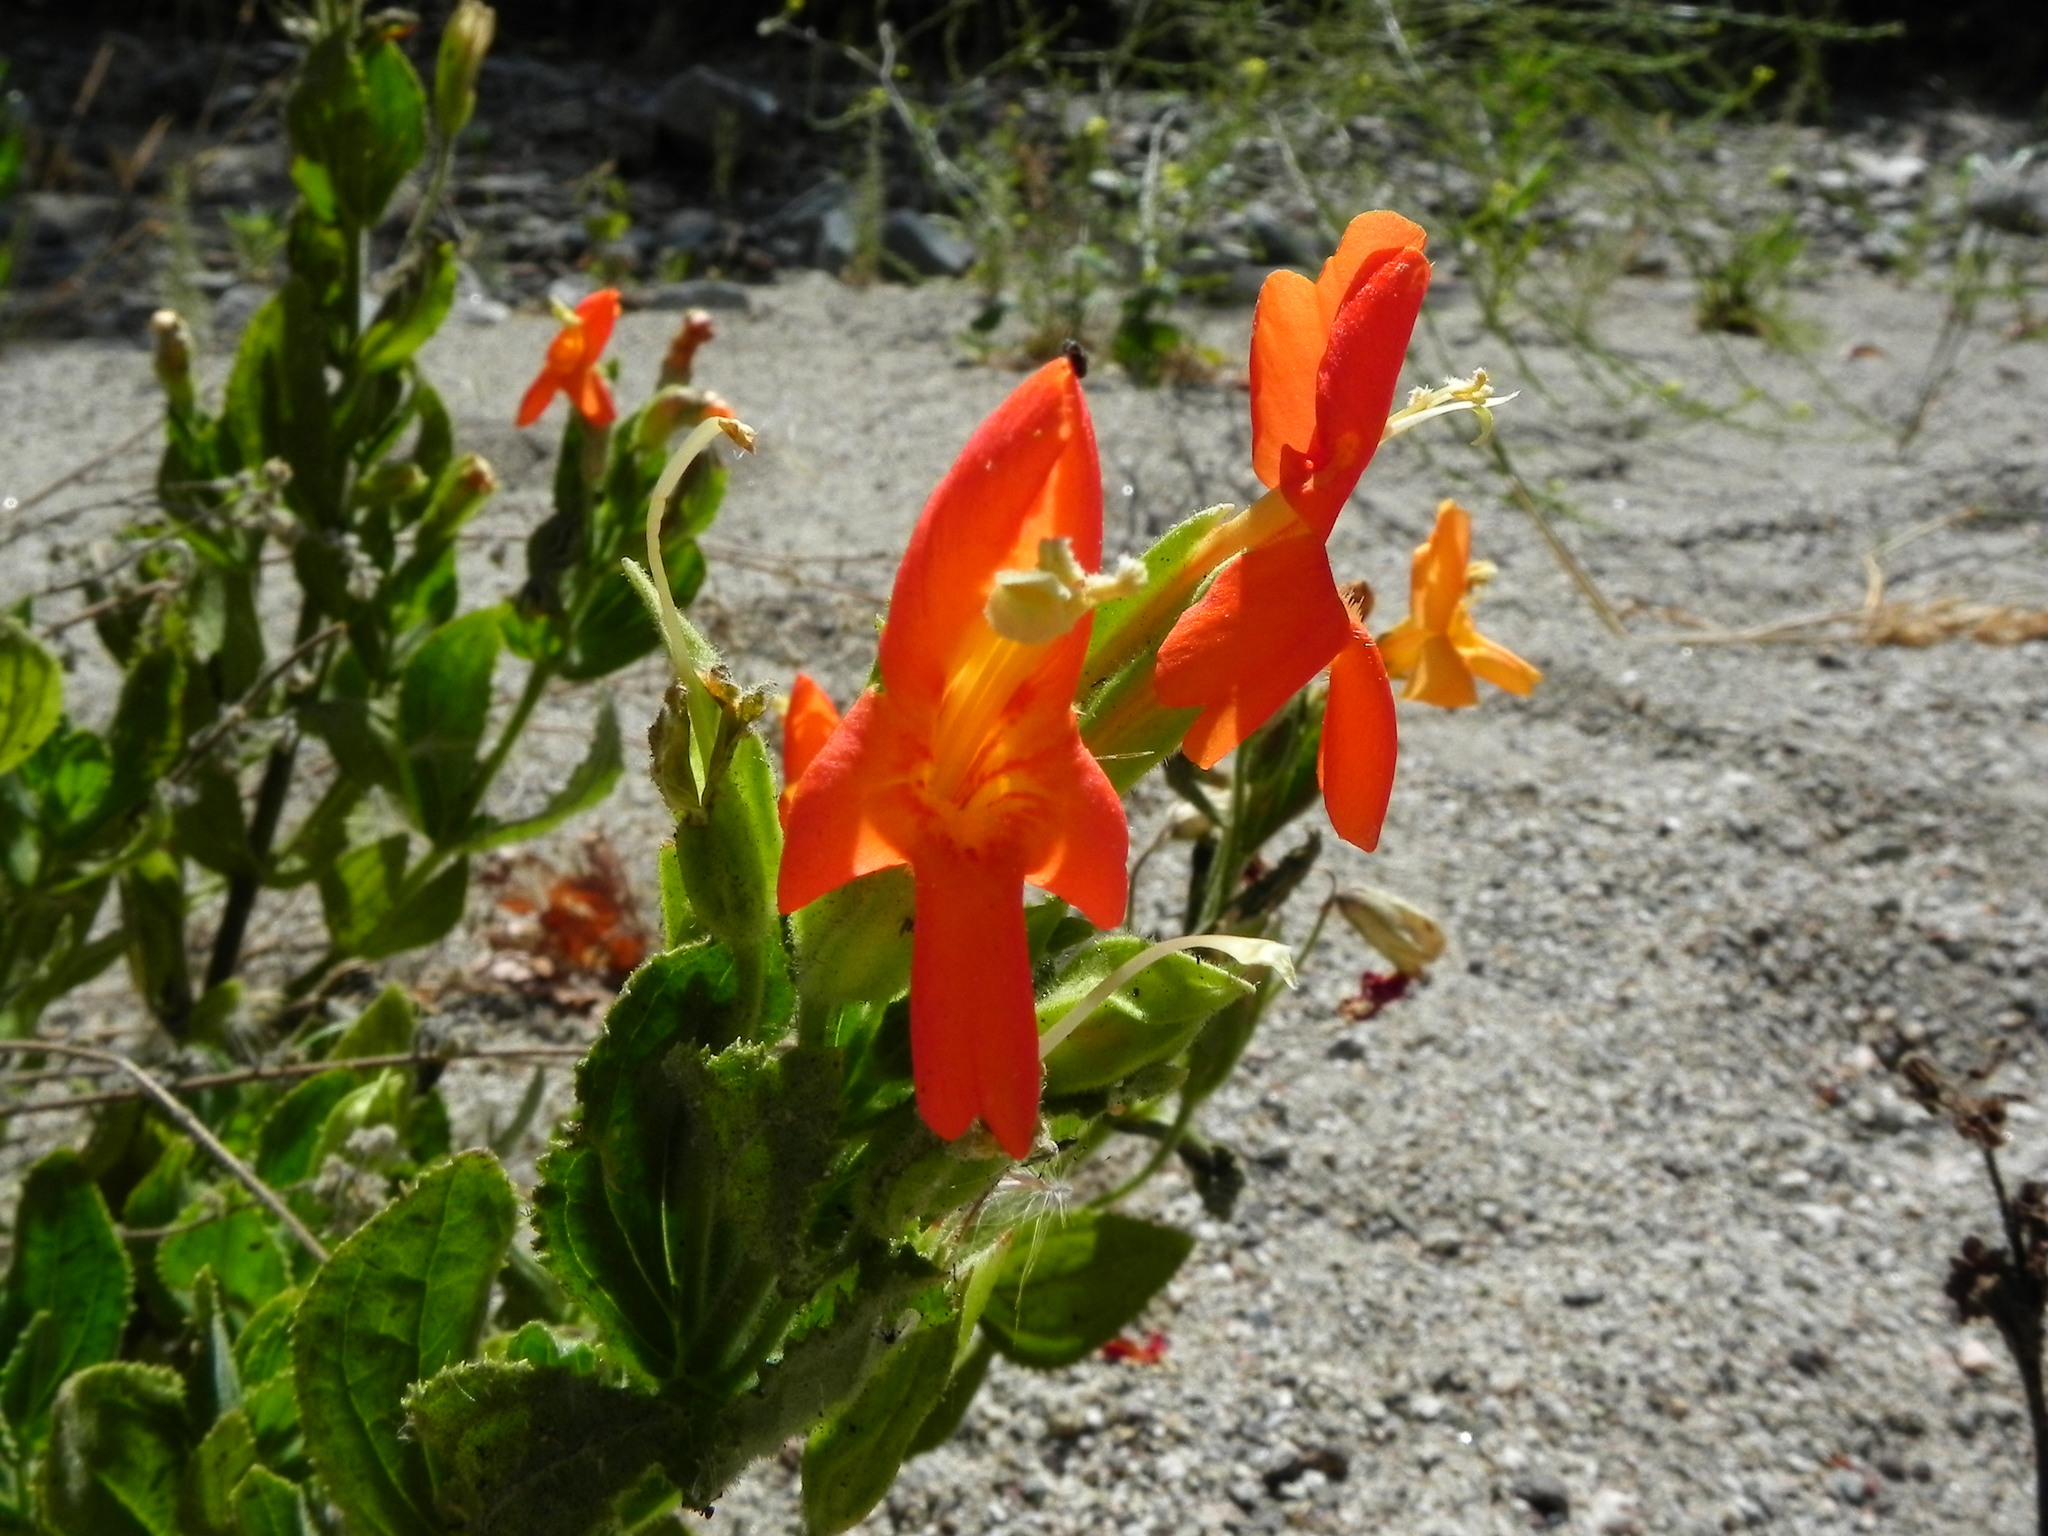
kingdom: Plantae
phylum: Tracheophyta
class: Magnoliopsida
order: Lamiales
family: Phrymaceae
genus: Erythranthe
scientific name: Erythranthe cardinalis
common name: Scarlet monkey-flower
